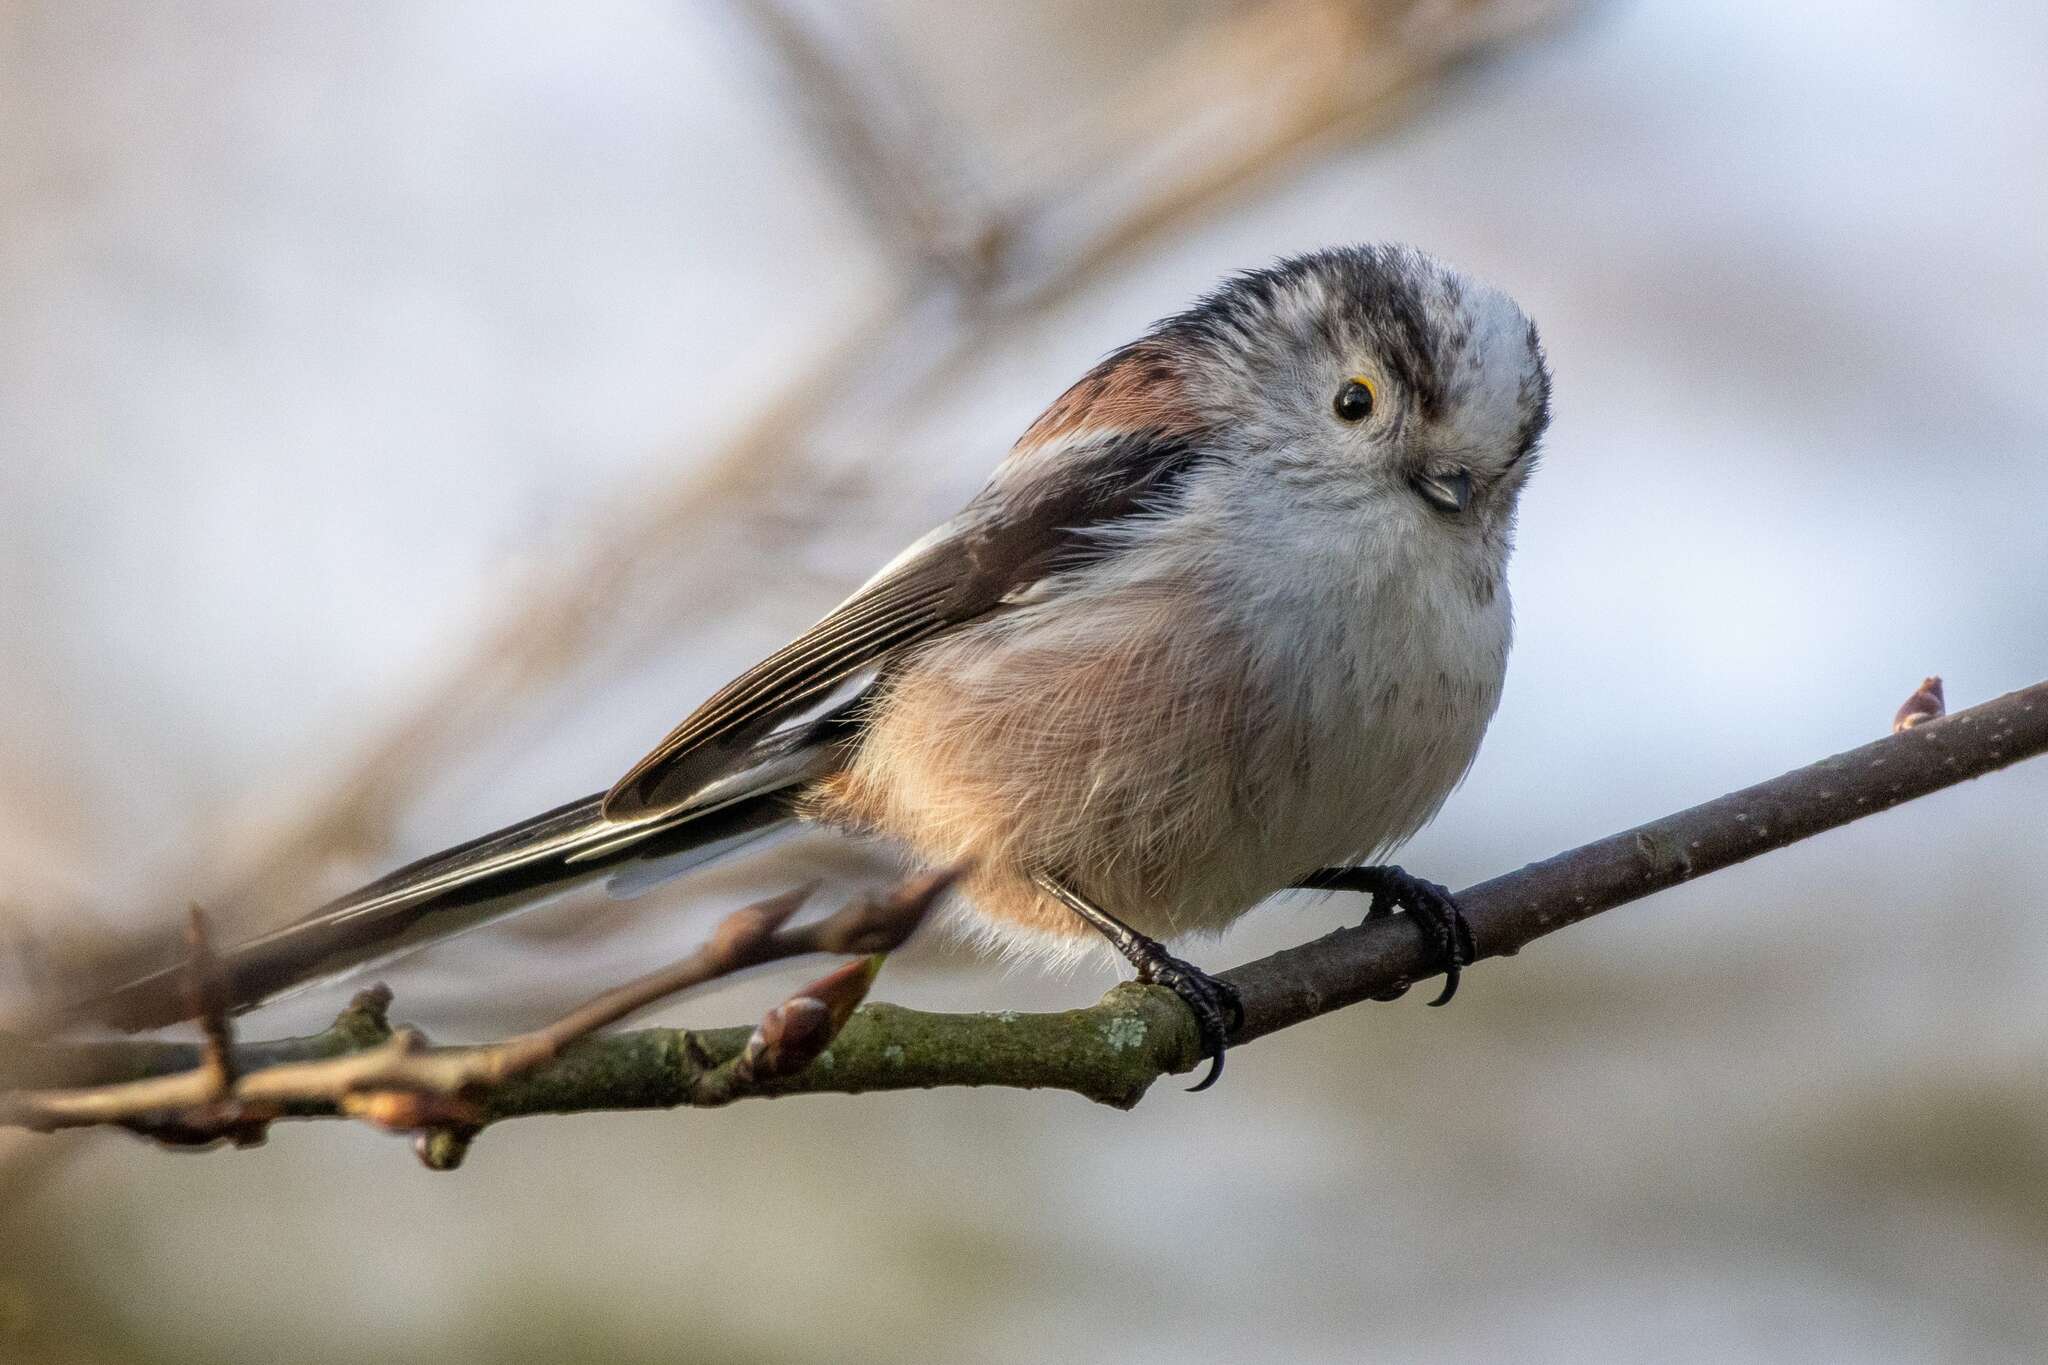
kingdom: Animalia
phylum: Chordata
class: Aves
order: Passeriformes
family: Aegithalidae
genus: Aegithalos
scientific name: Aegithalos caudatus
